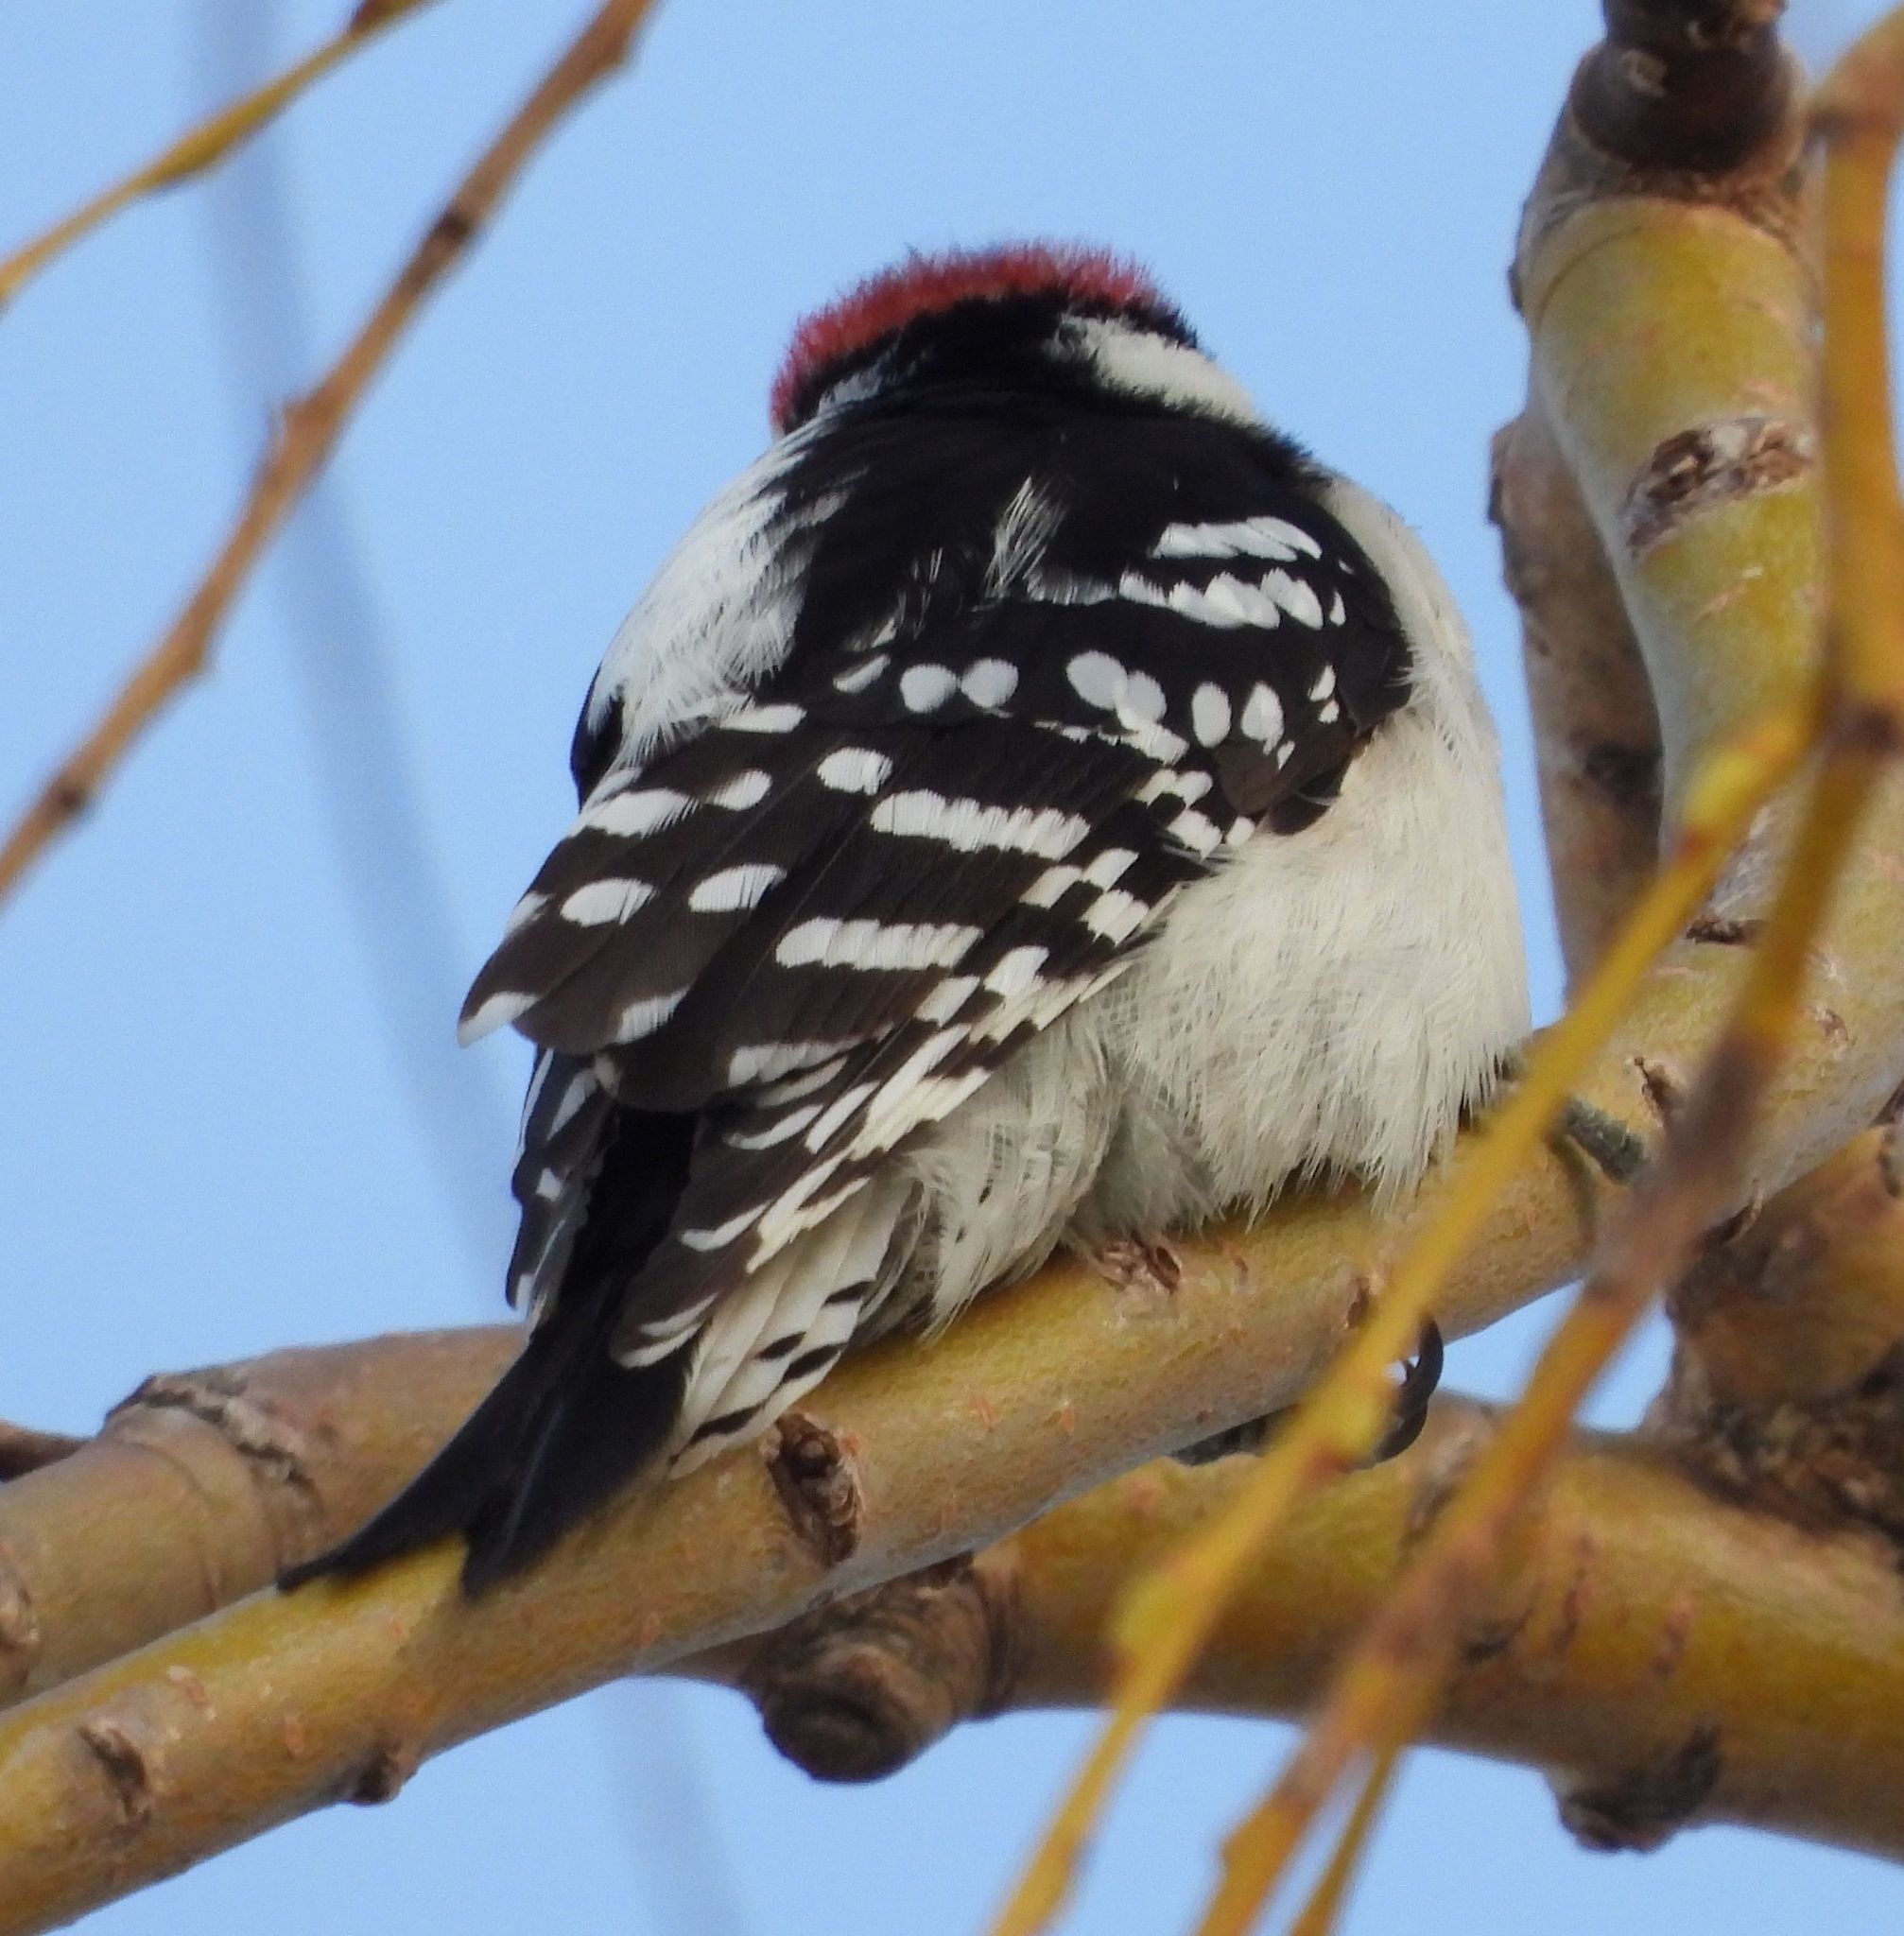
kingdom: Animalia
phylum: Chordata
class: Aves
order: Piciformes
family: Picidae
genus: Dryobates
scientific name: Dryobates pubescens
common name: Downy woodpecker
